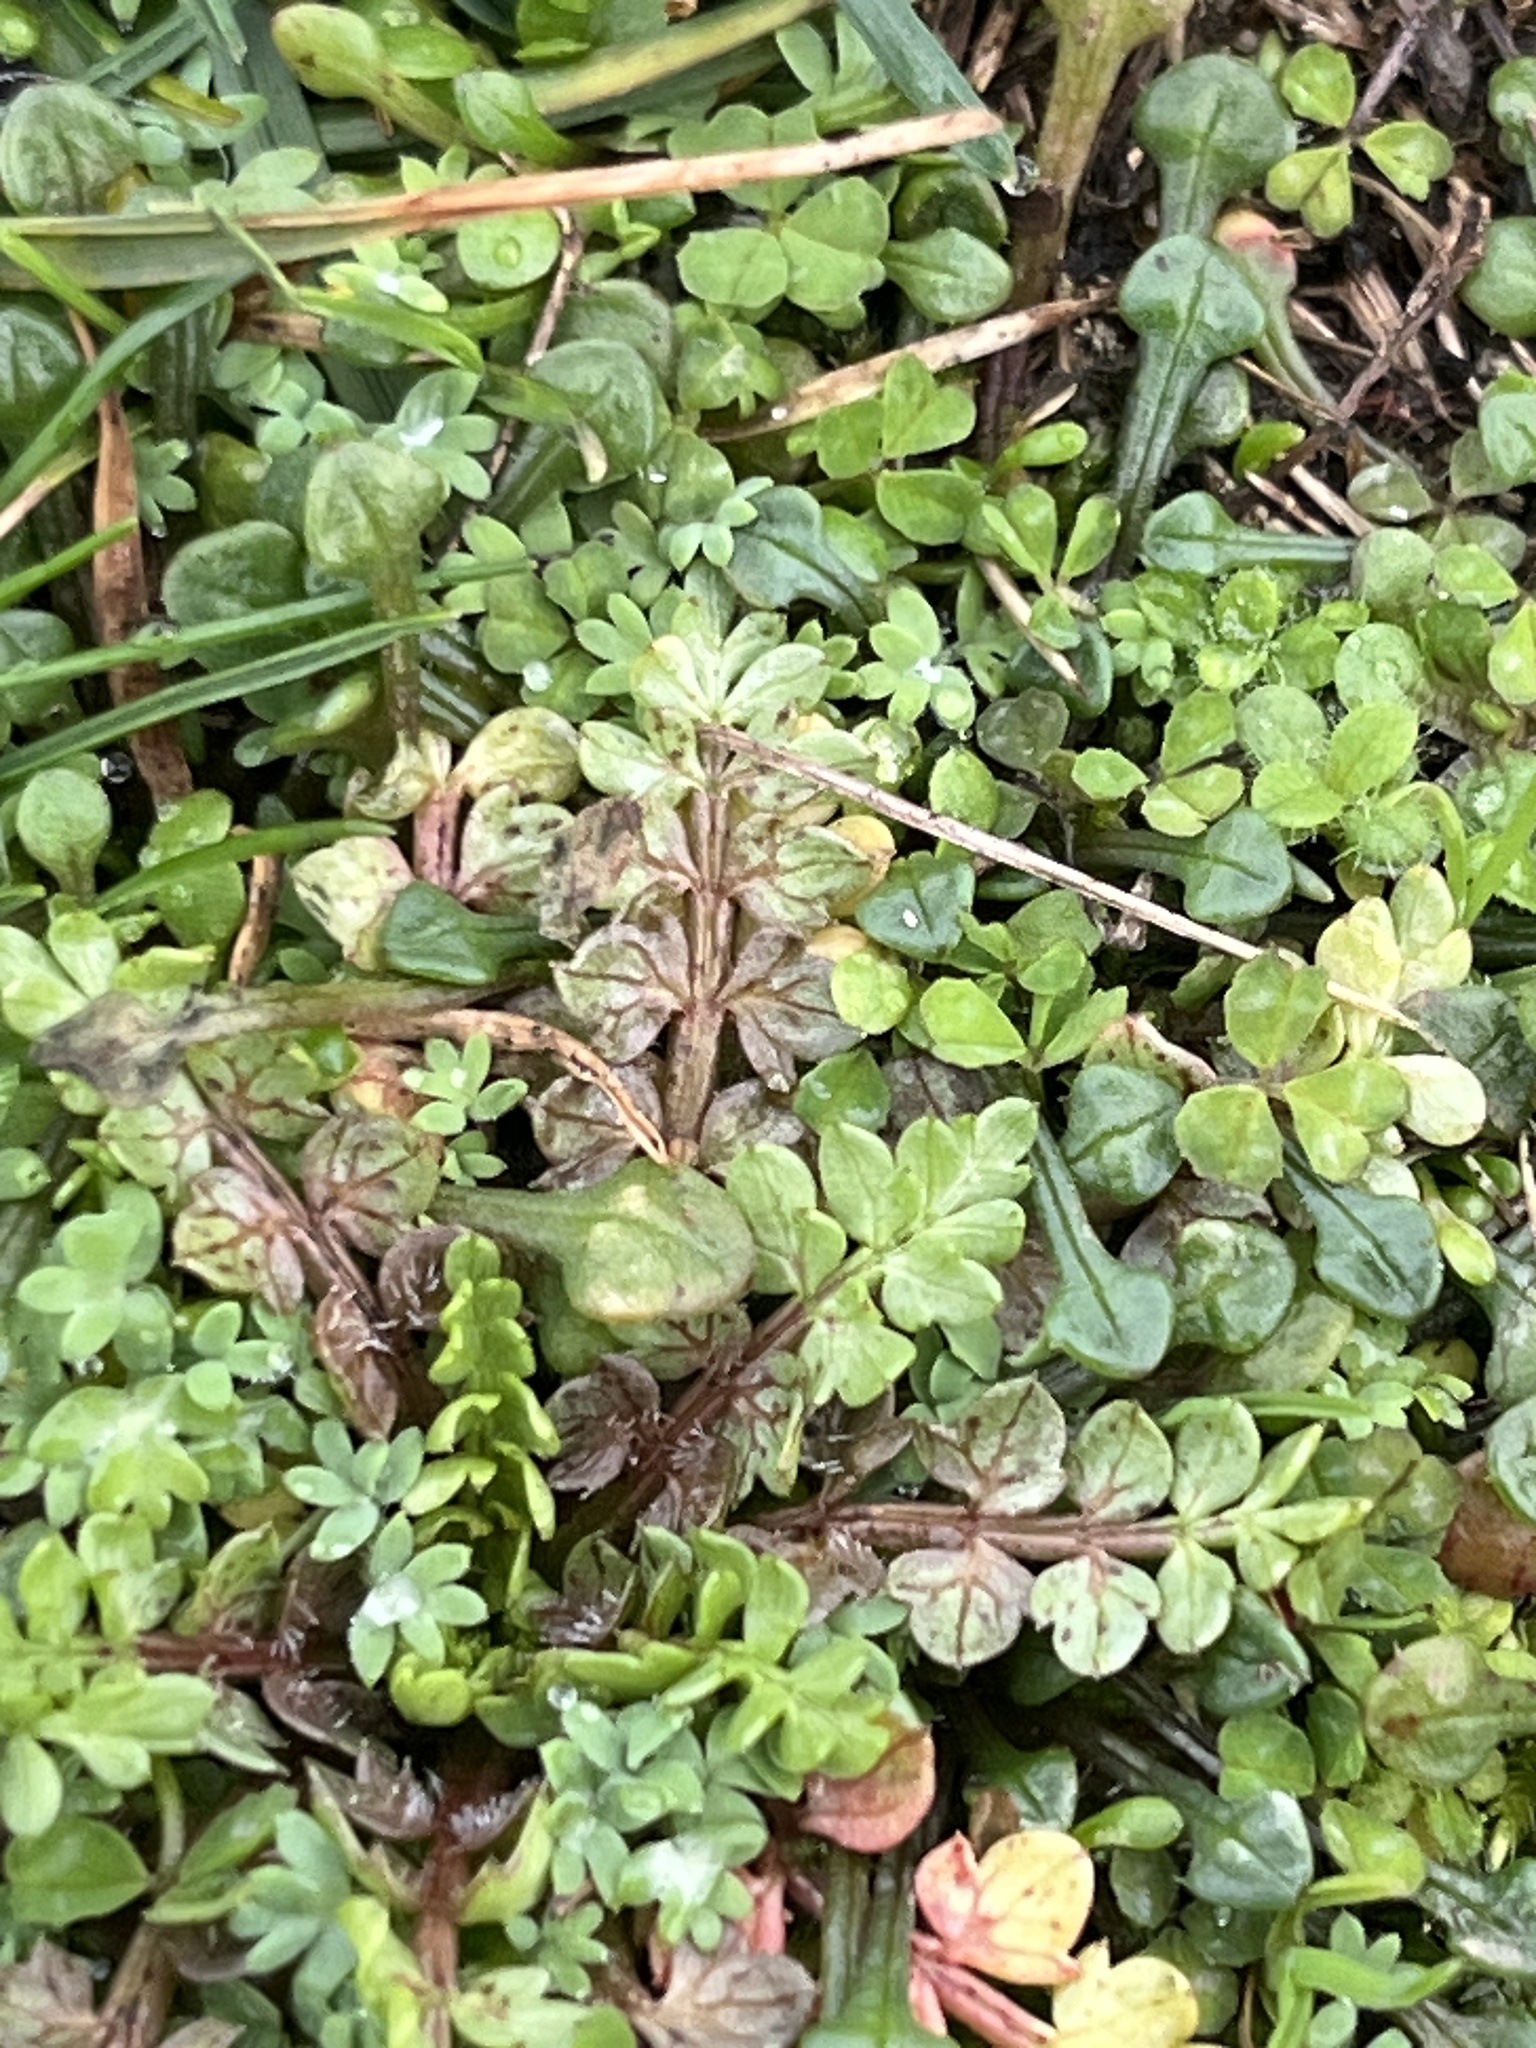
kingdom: Plantae
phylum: Tracheophyta
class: Magnoliopsida
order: Brassicales
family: Limnanthaceae
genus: Limnanthes
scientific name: Limnanthes macounii
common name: Macoun's meadowfoam
